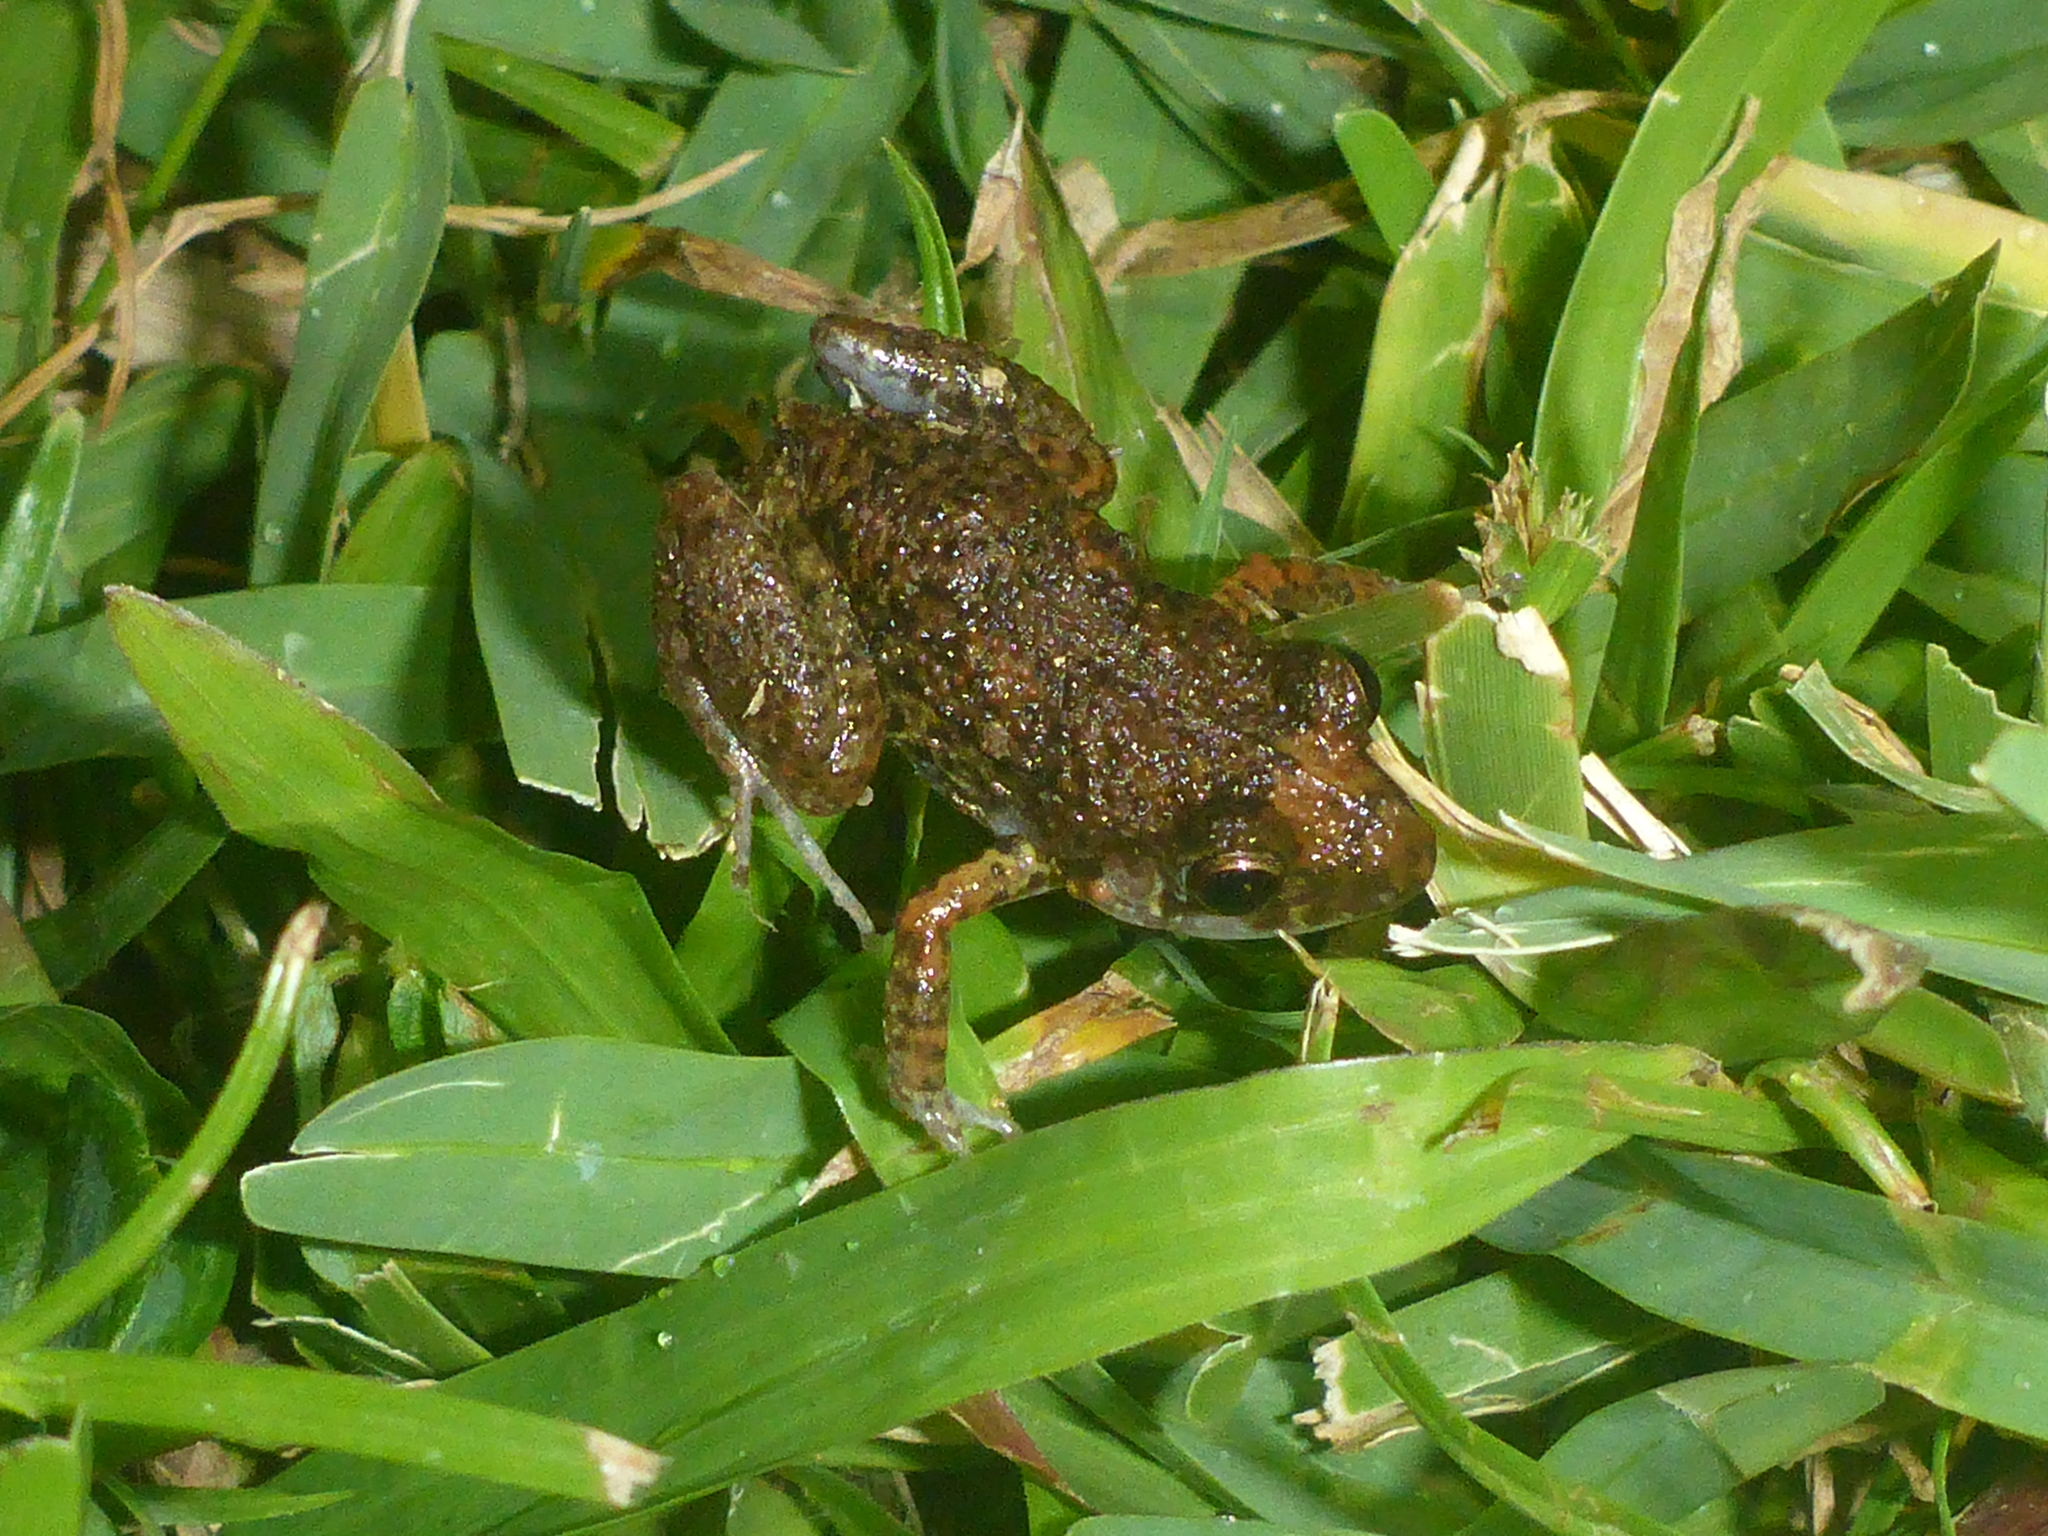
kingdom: Animalia
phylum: Chordata
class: Amphibia
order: Anura
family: Eleutherodactylidae
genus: Eleutherodactylus
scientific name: Eleutherodactylus planirostris
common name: Greenhouse frog
